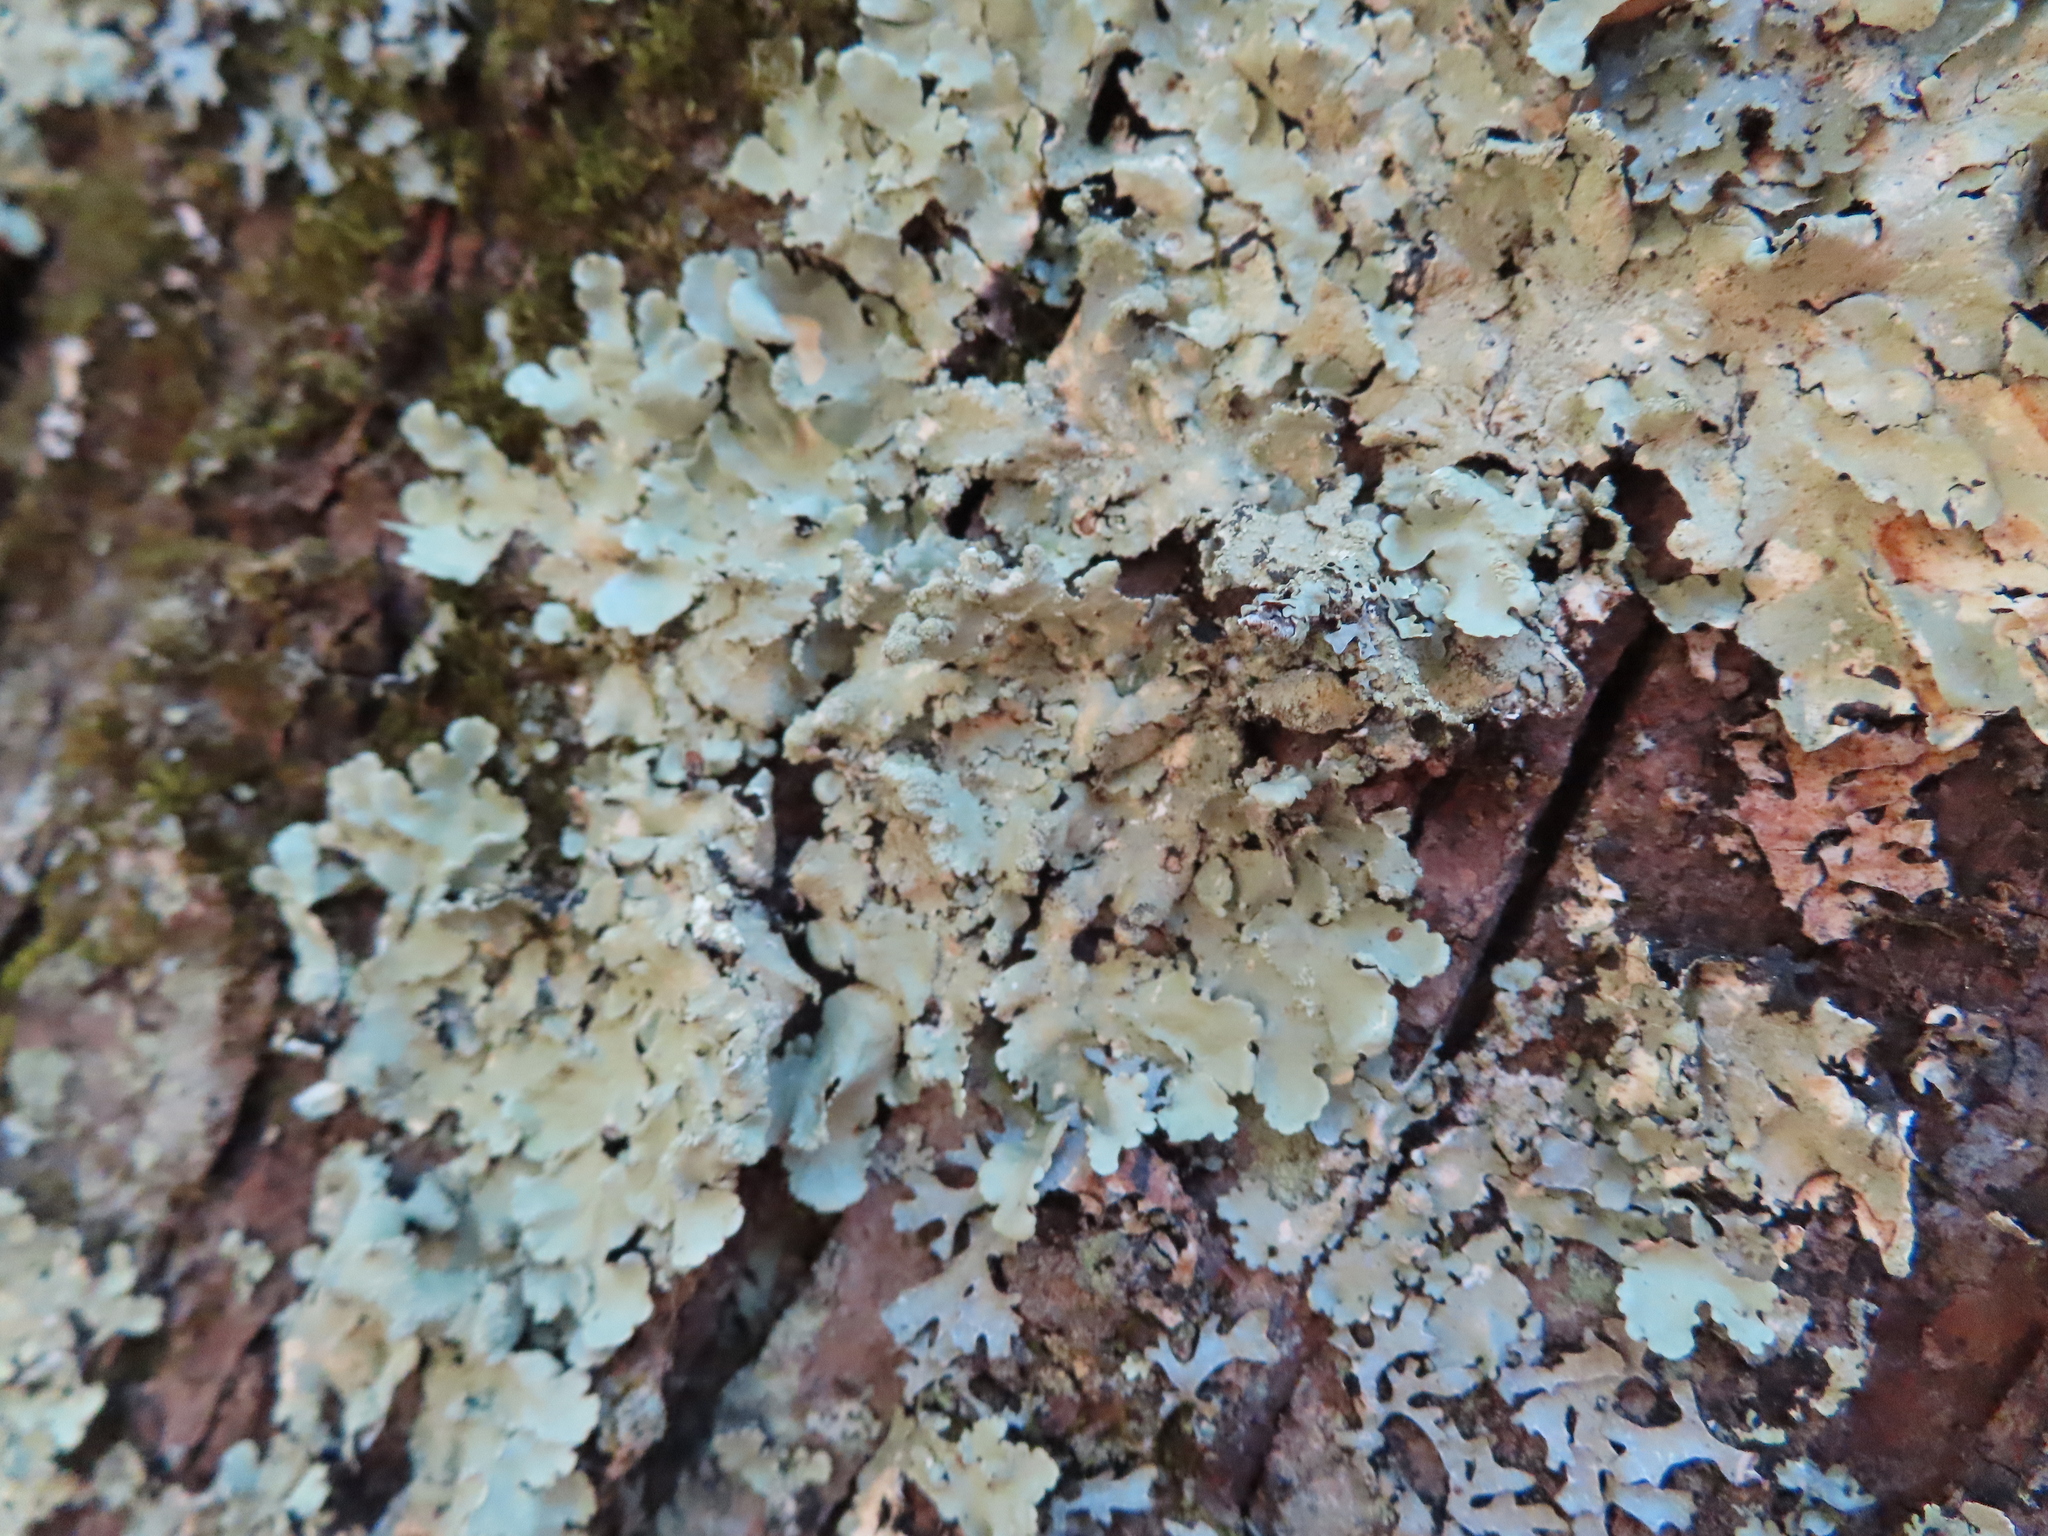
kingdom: Fungi
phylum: Ascomycota
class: Lecanoromycetes
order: Lecanorales
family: Parmeliaceae
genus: Myelochroa
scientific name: Myelochroa aurulenta
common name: Powdery axil-bristle lichen
